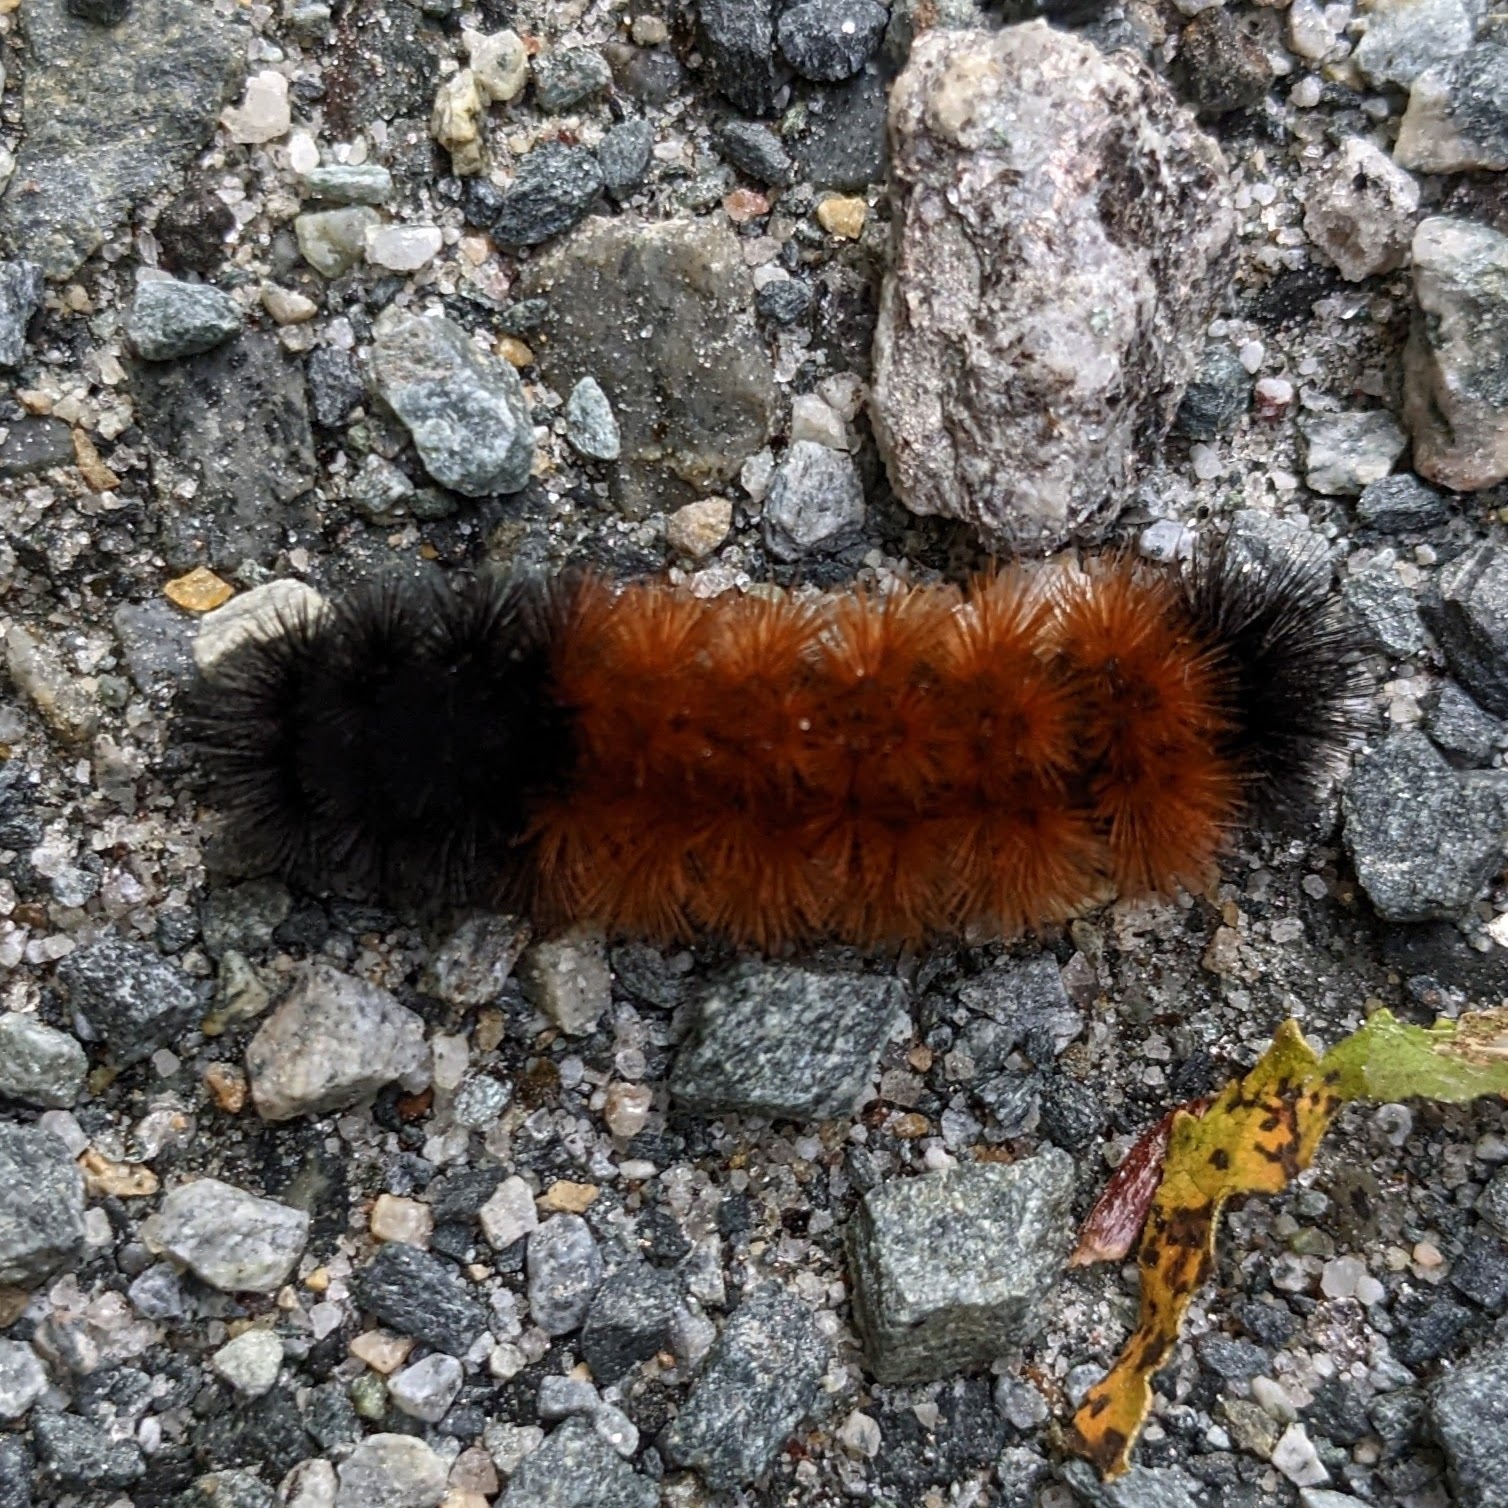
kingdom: Animalia
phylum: Arthropoda
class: Insecta
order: Lepidoptera
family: Erebidae
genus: Pyrrharctia
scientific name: Pyrrharctia isabella
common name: Isabella tiger moth
